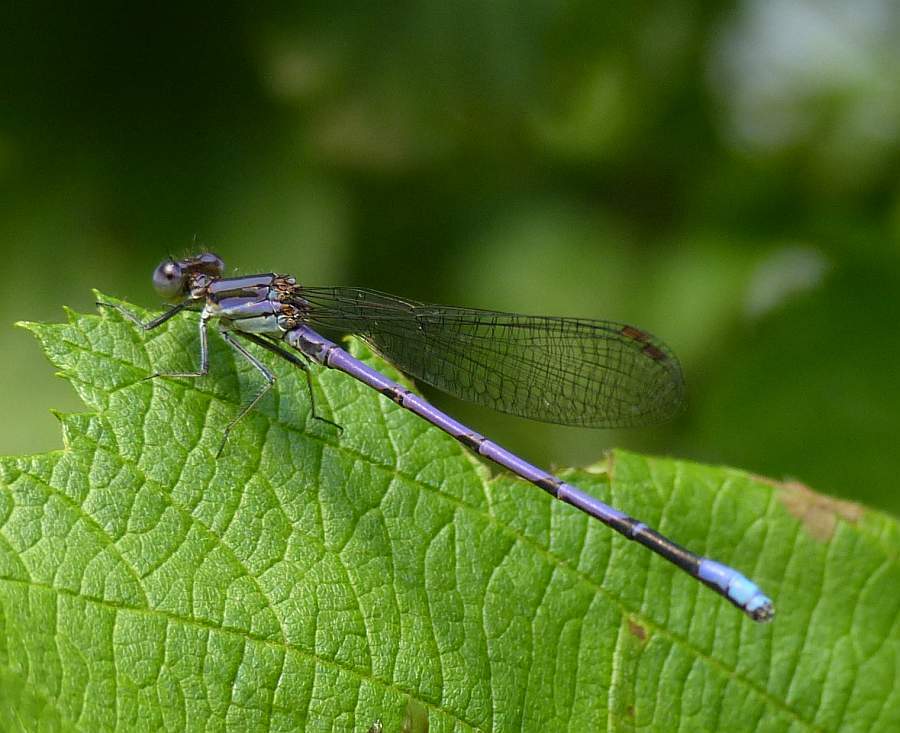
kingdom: Animalia
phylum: Arthropoda
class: Insecta
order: Odonata
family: Coenagrionidae
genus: Argia
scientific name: Argia fumipennis
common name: Variable dancer
